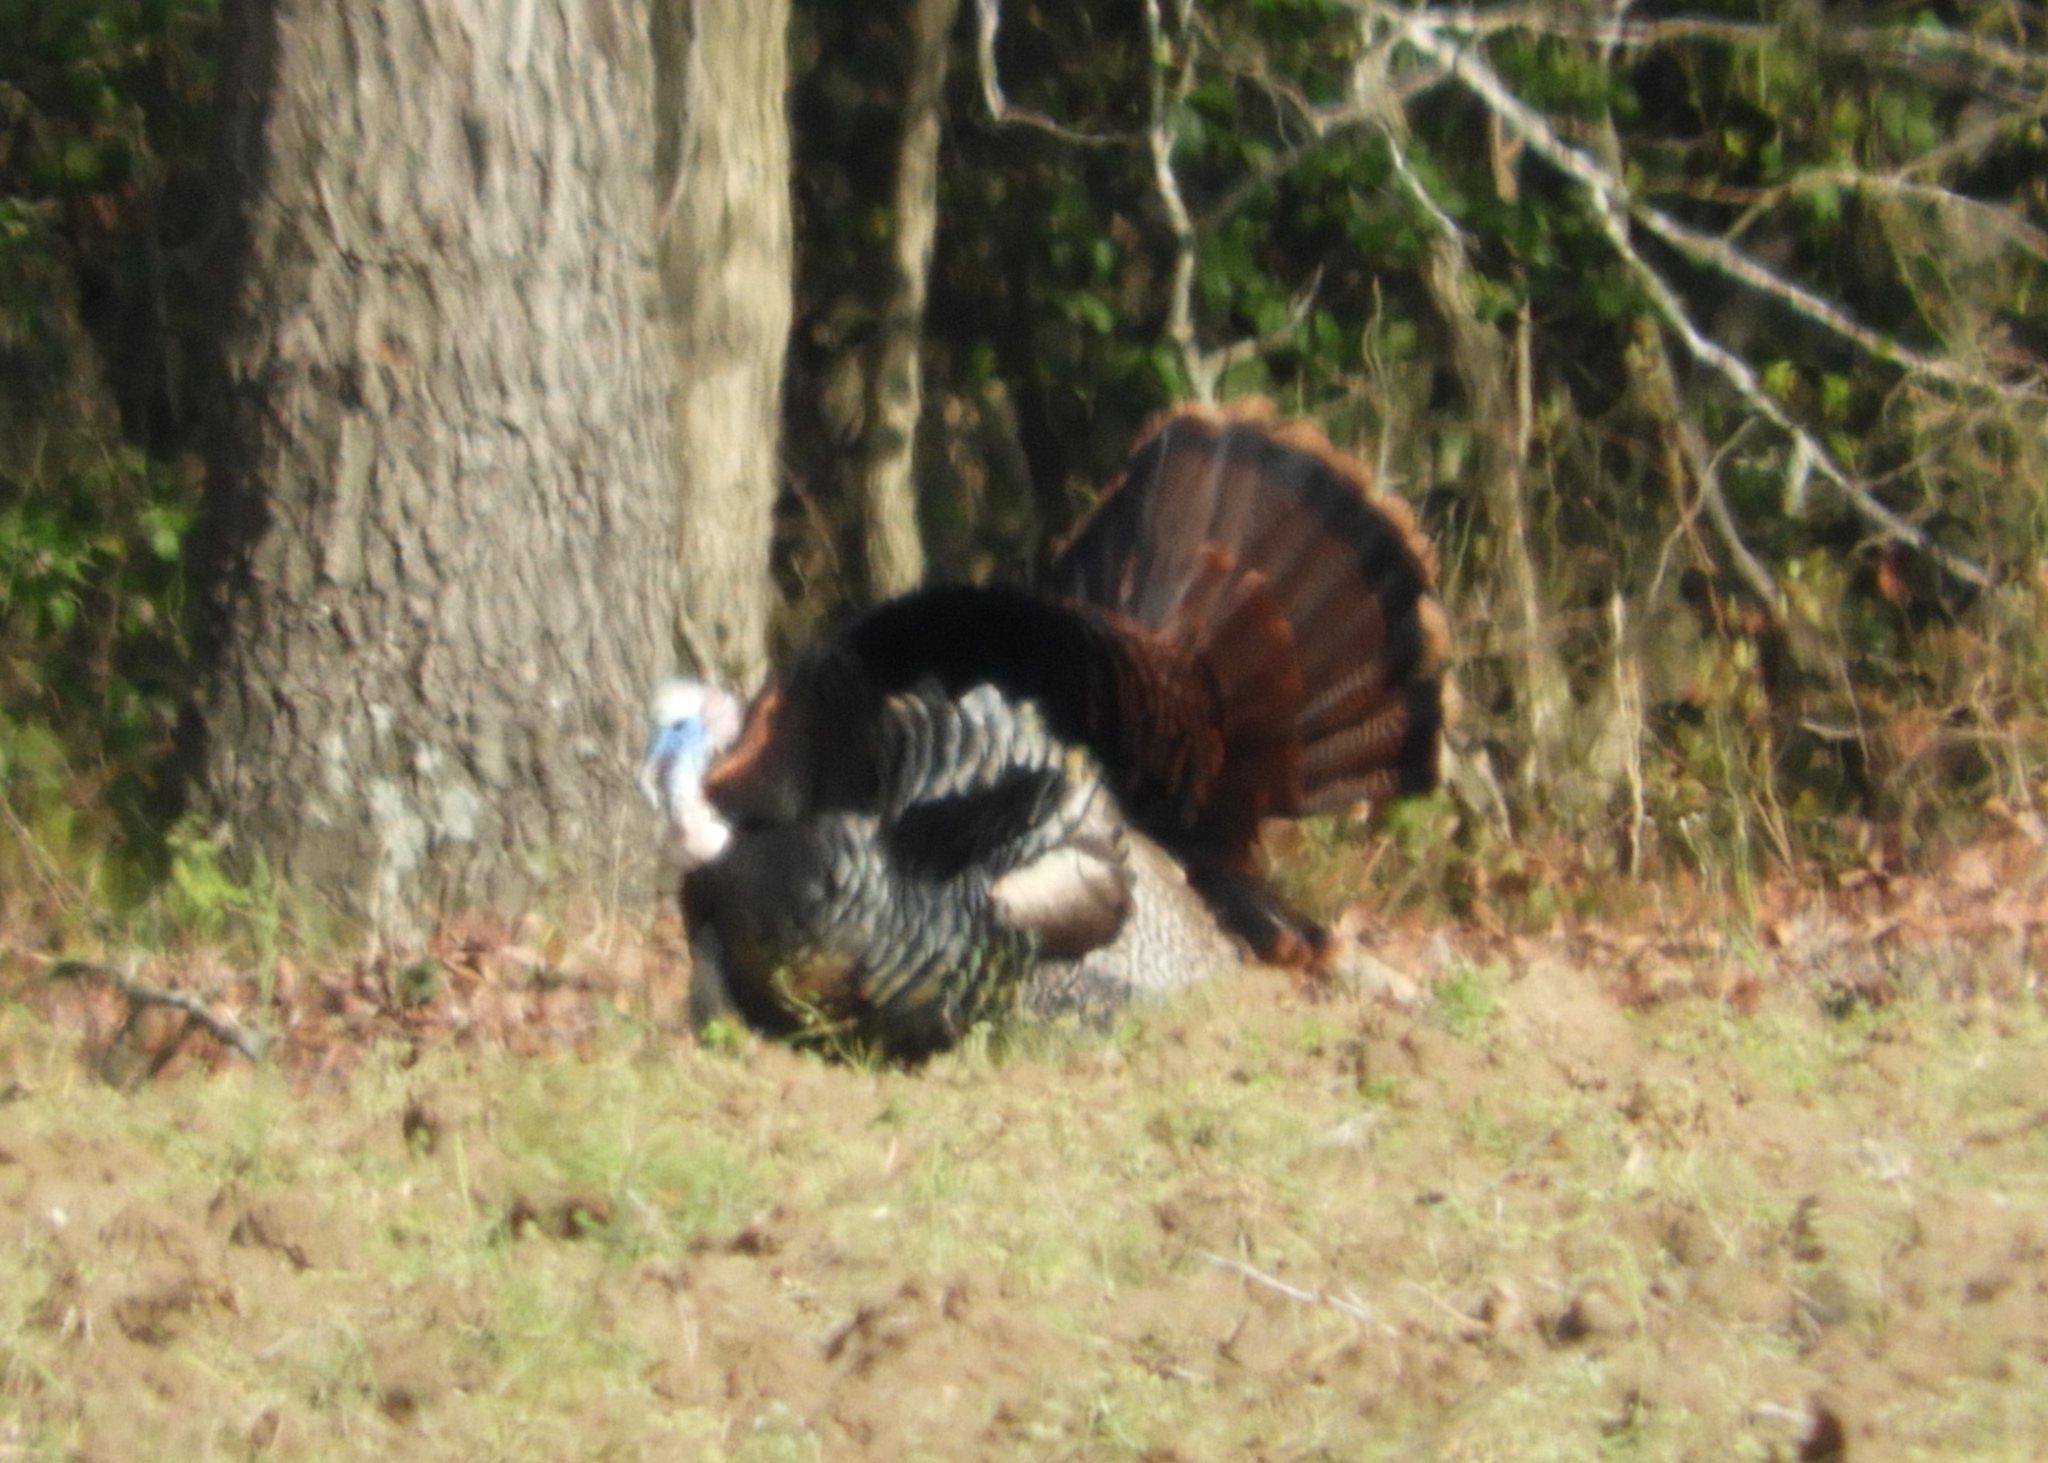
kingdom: Animalia
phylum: Chordata
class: Aves
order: Galliformes
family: Phasianidae
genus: Meleagris
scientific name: Meleagris gallopavo
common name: Wild turkey
